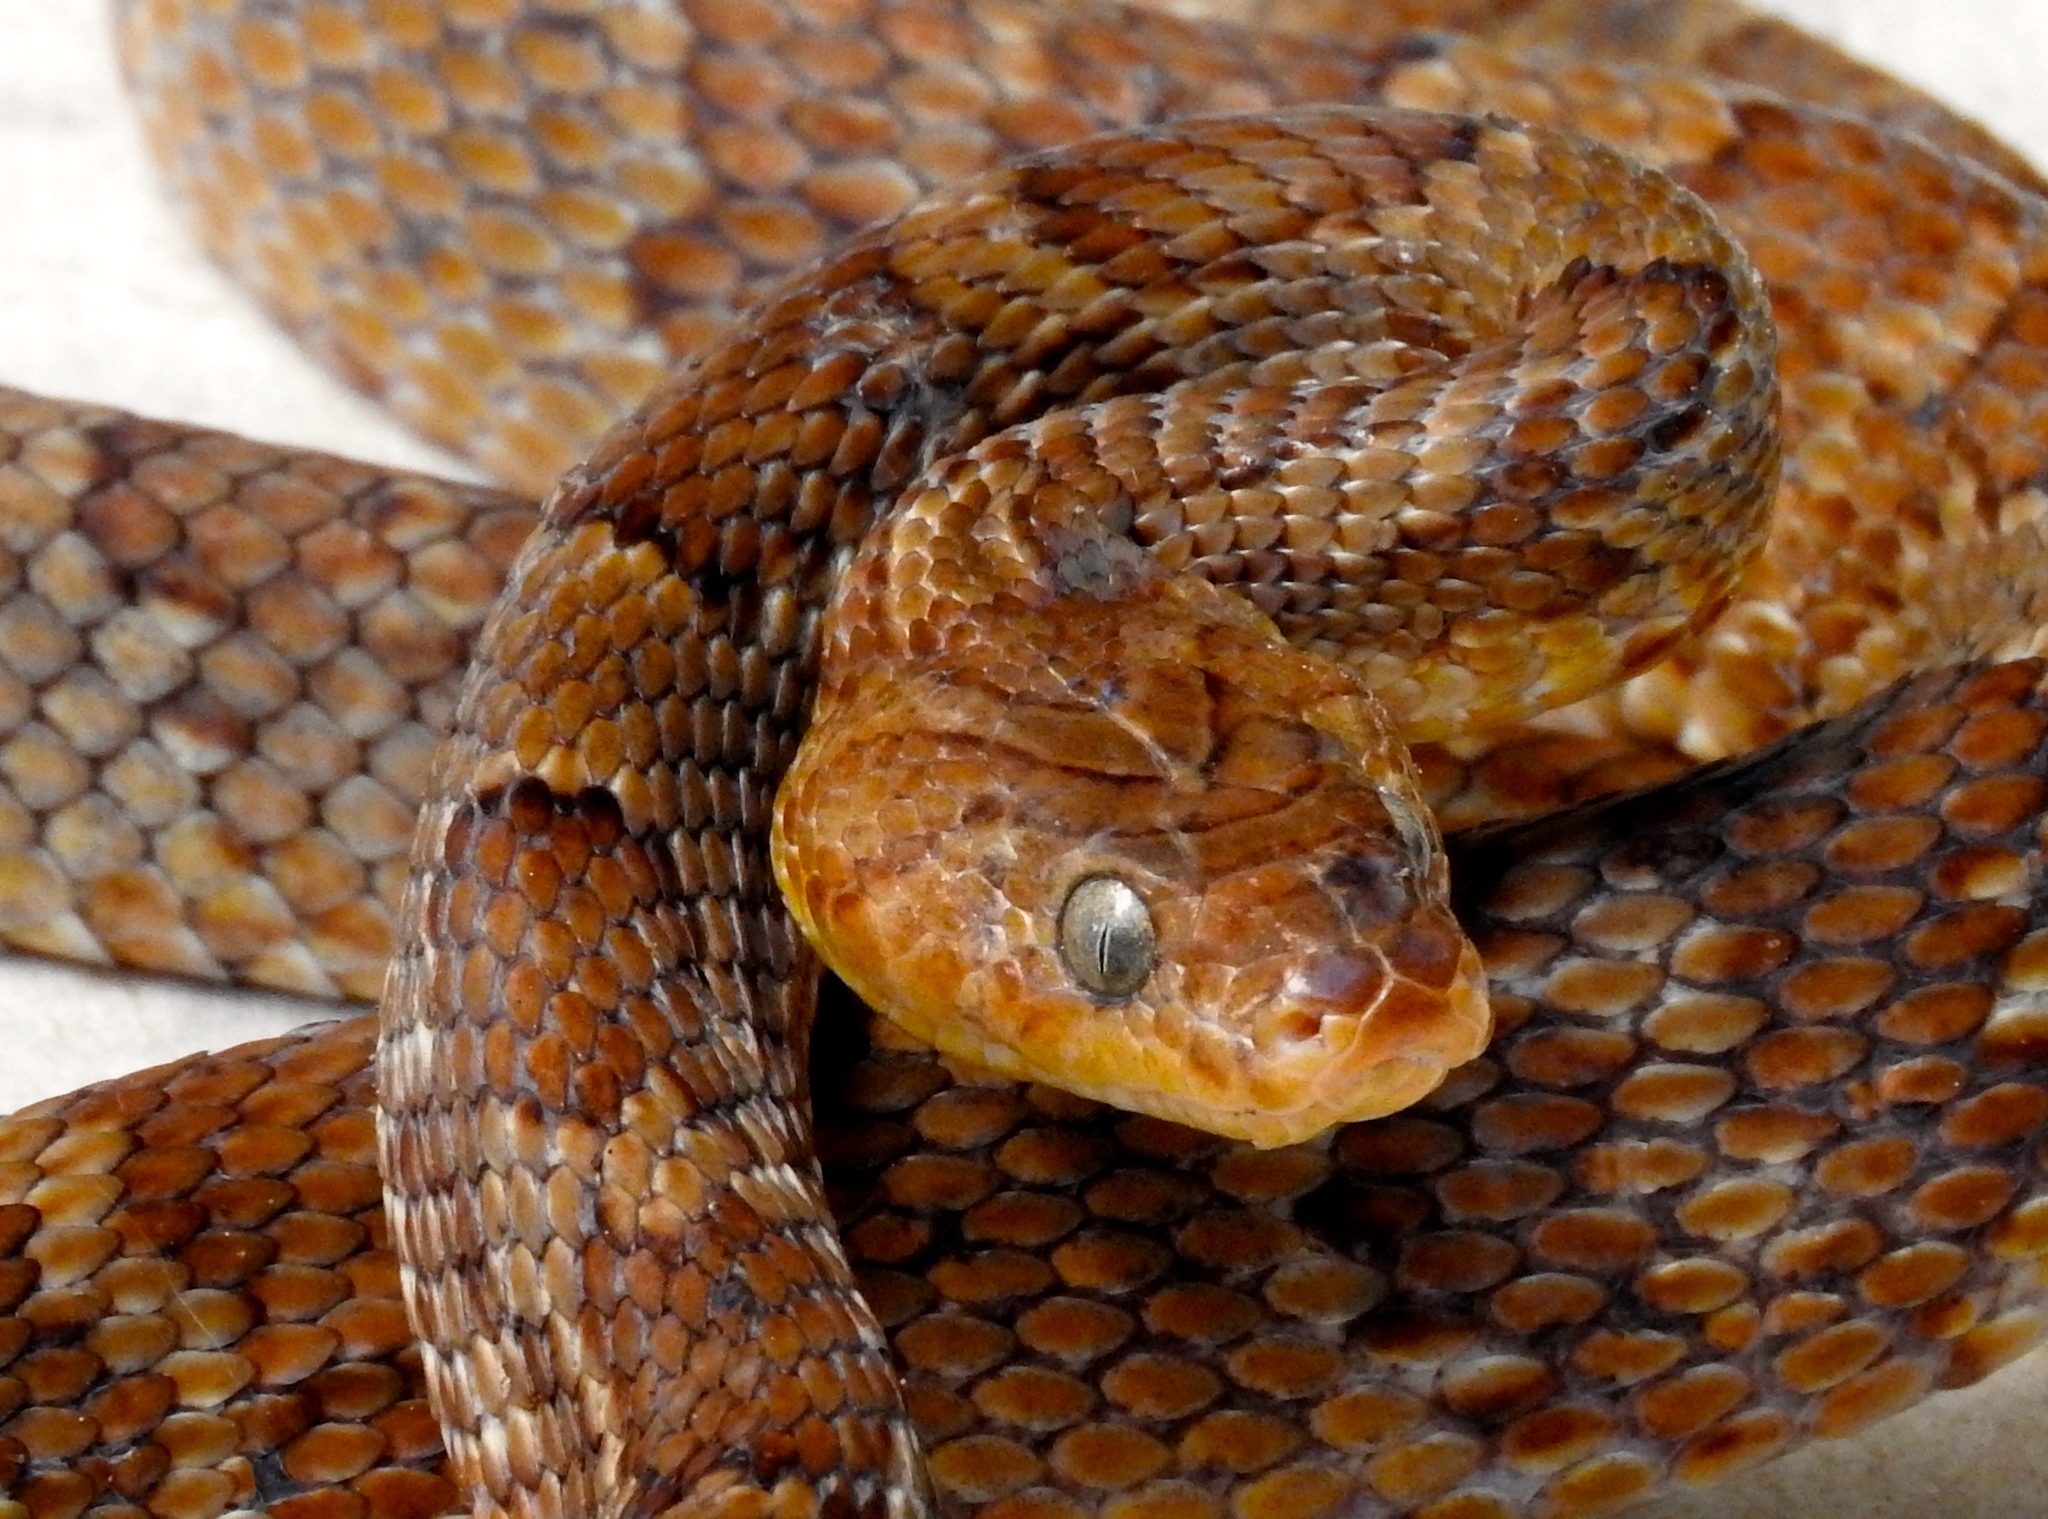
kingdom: Animalia
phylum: Chordata
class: Squamata
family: Colubridae
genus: Trimorphodon
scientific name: Trimorphodon paucimaculatus
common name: Sinaloan lyresnake
